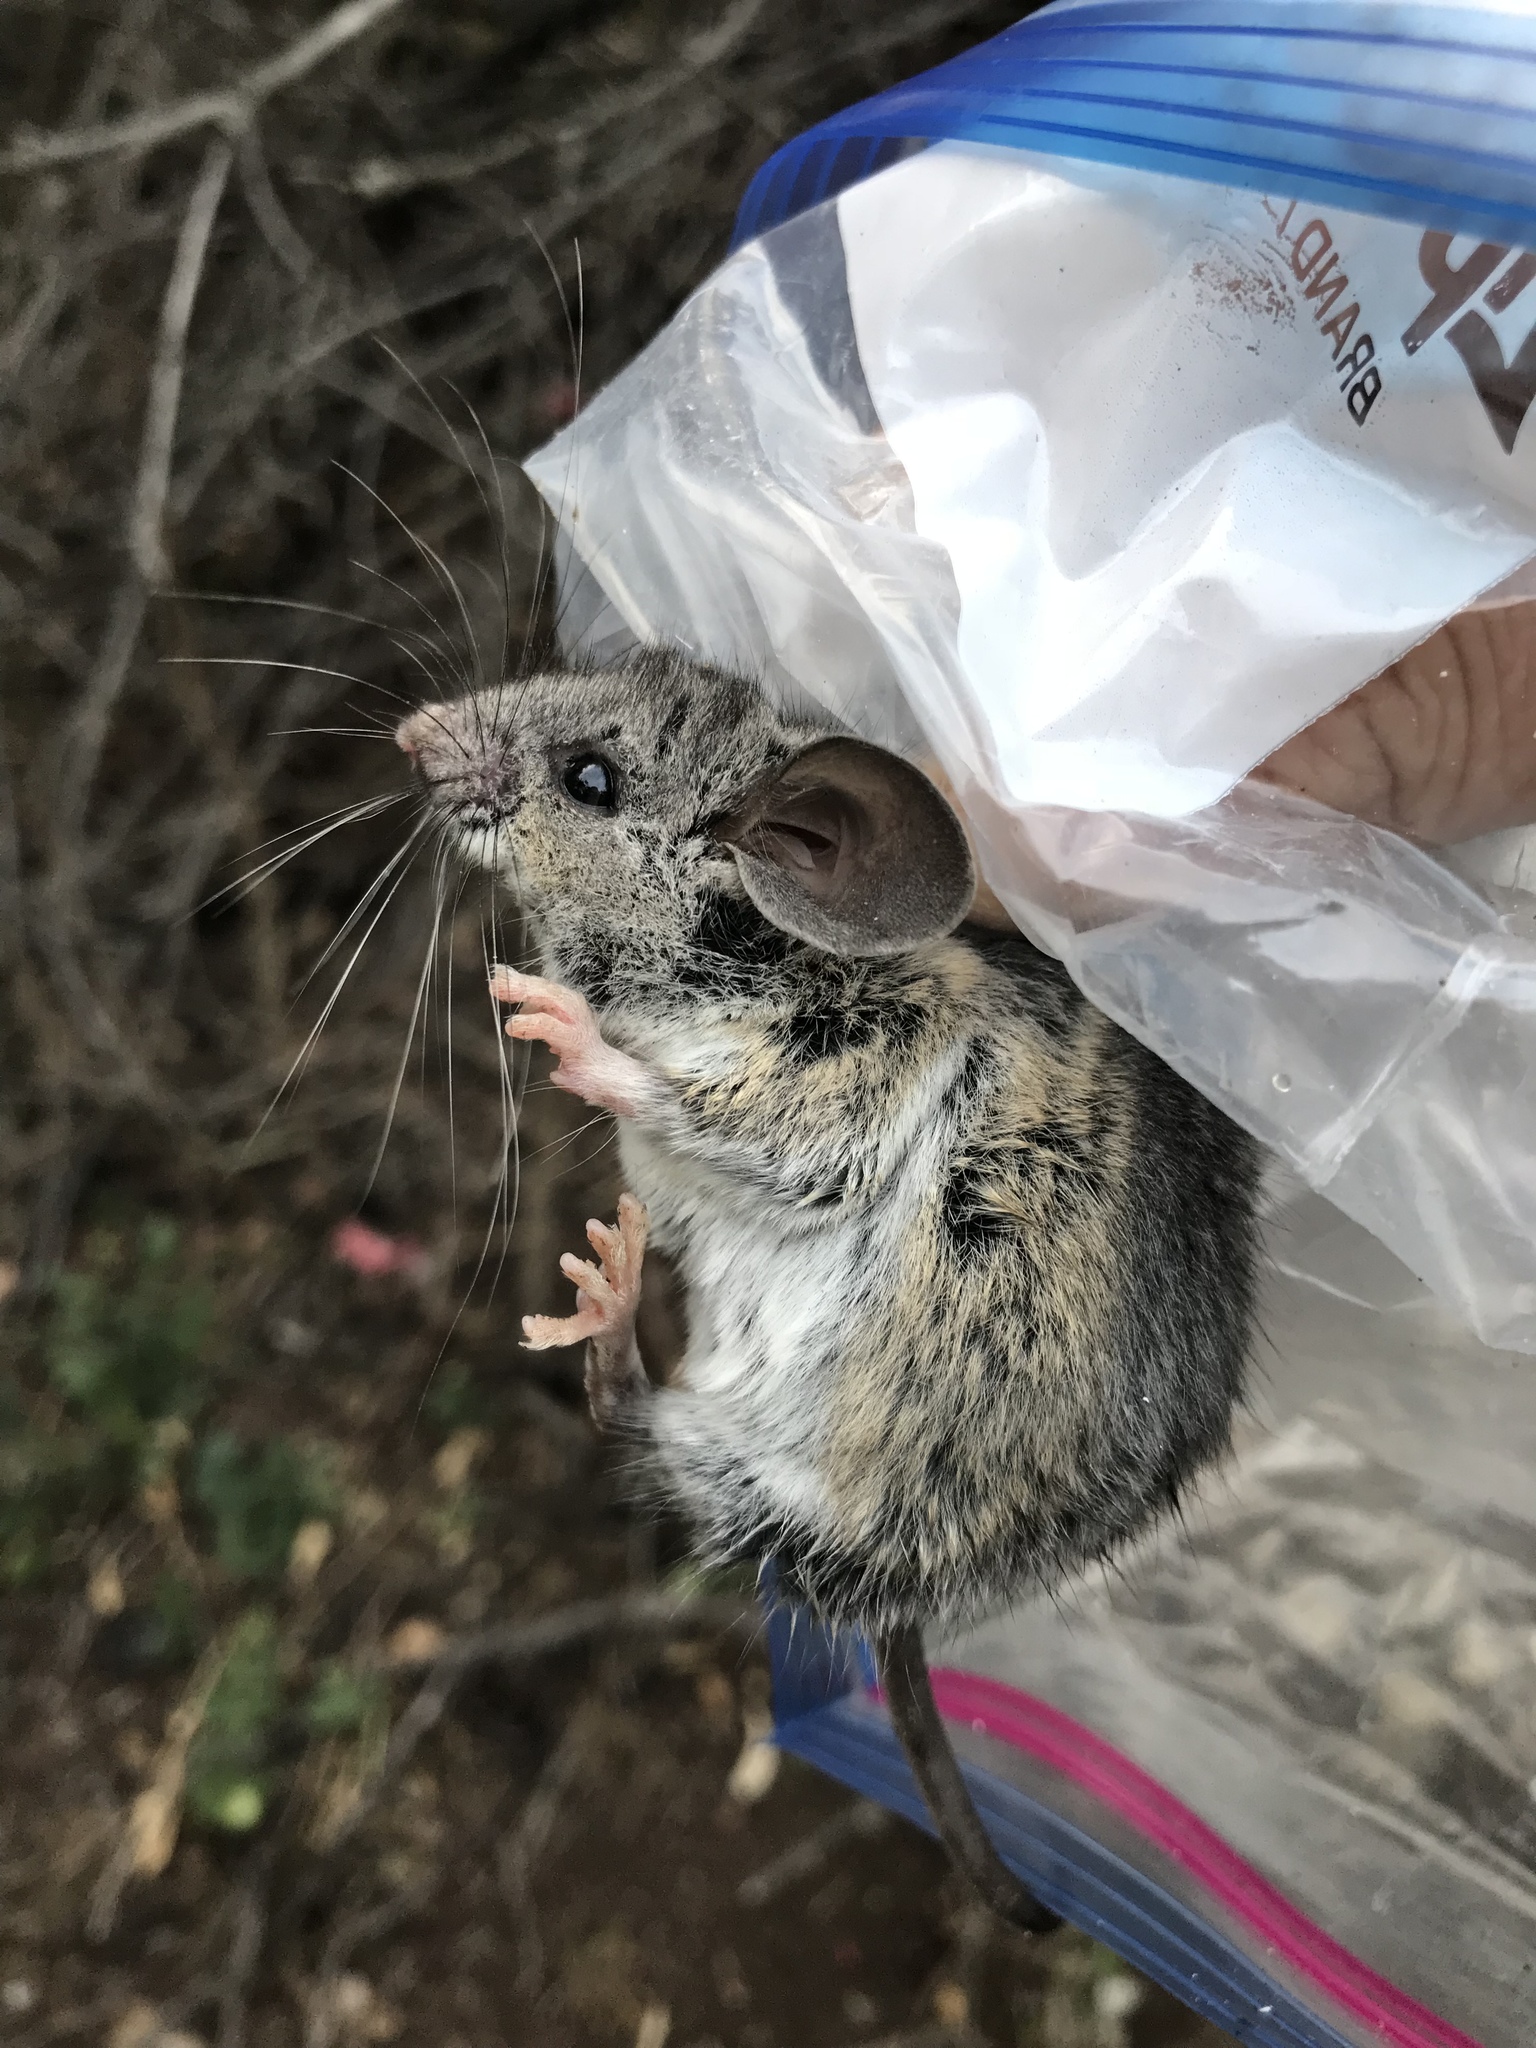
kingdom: Animalia
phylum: Chordata
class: Mammalia
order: Rodentia
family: Cricetidae
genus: Peromyscus
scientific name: Peromyscus boylii
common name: Brush mouse
